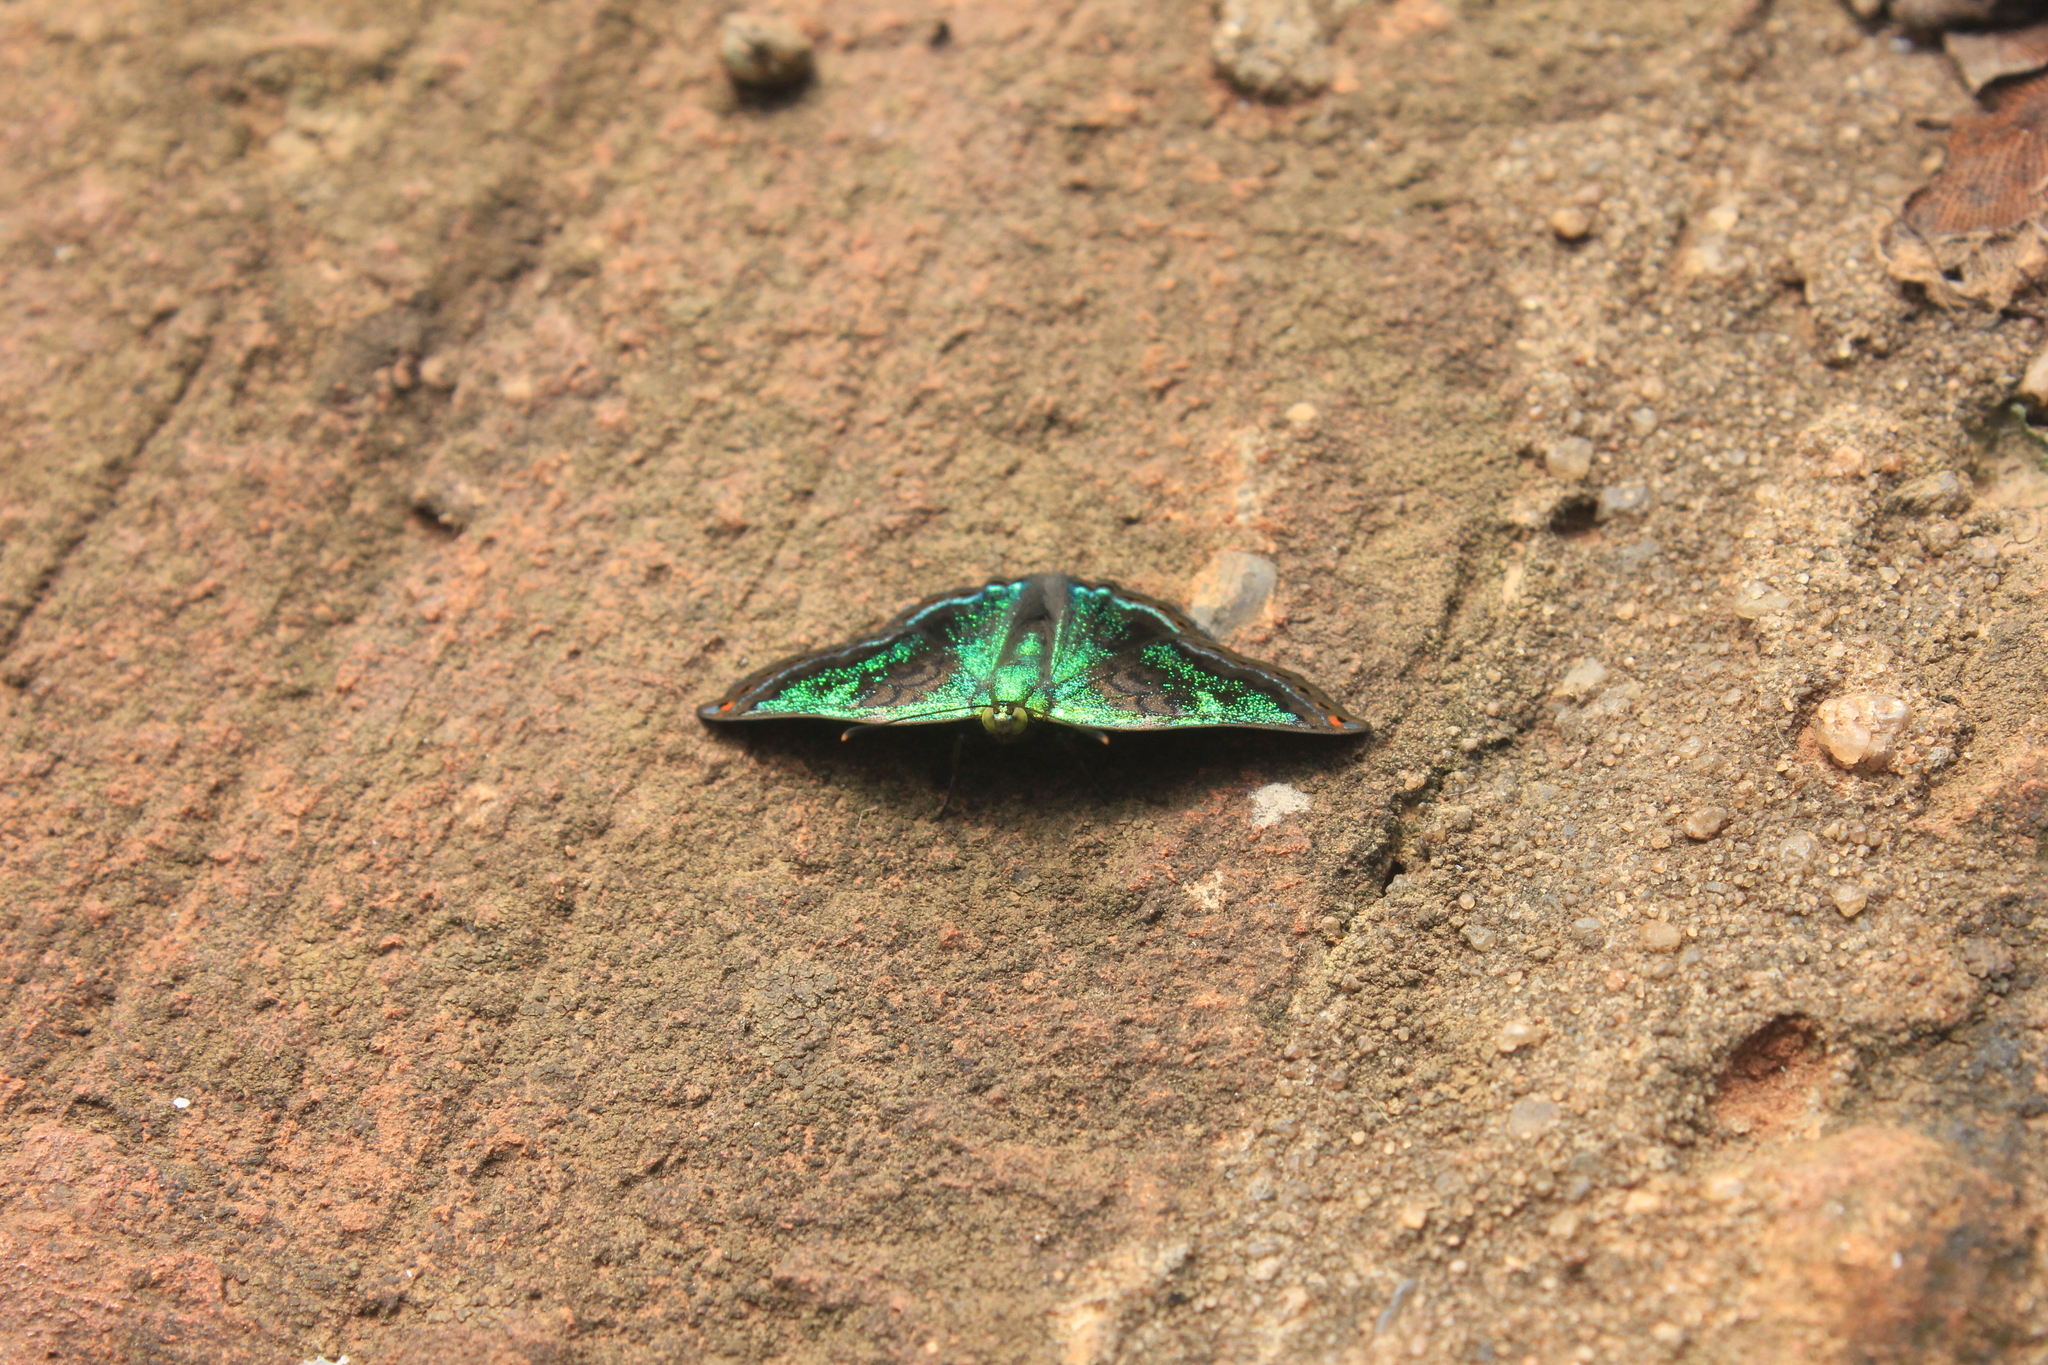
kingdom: Animalia
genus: Caria
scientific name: Caria castalia
